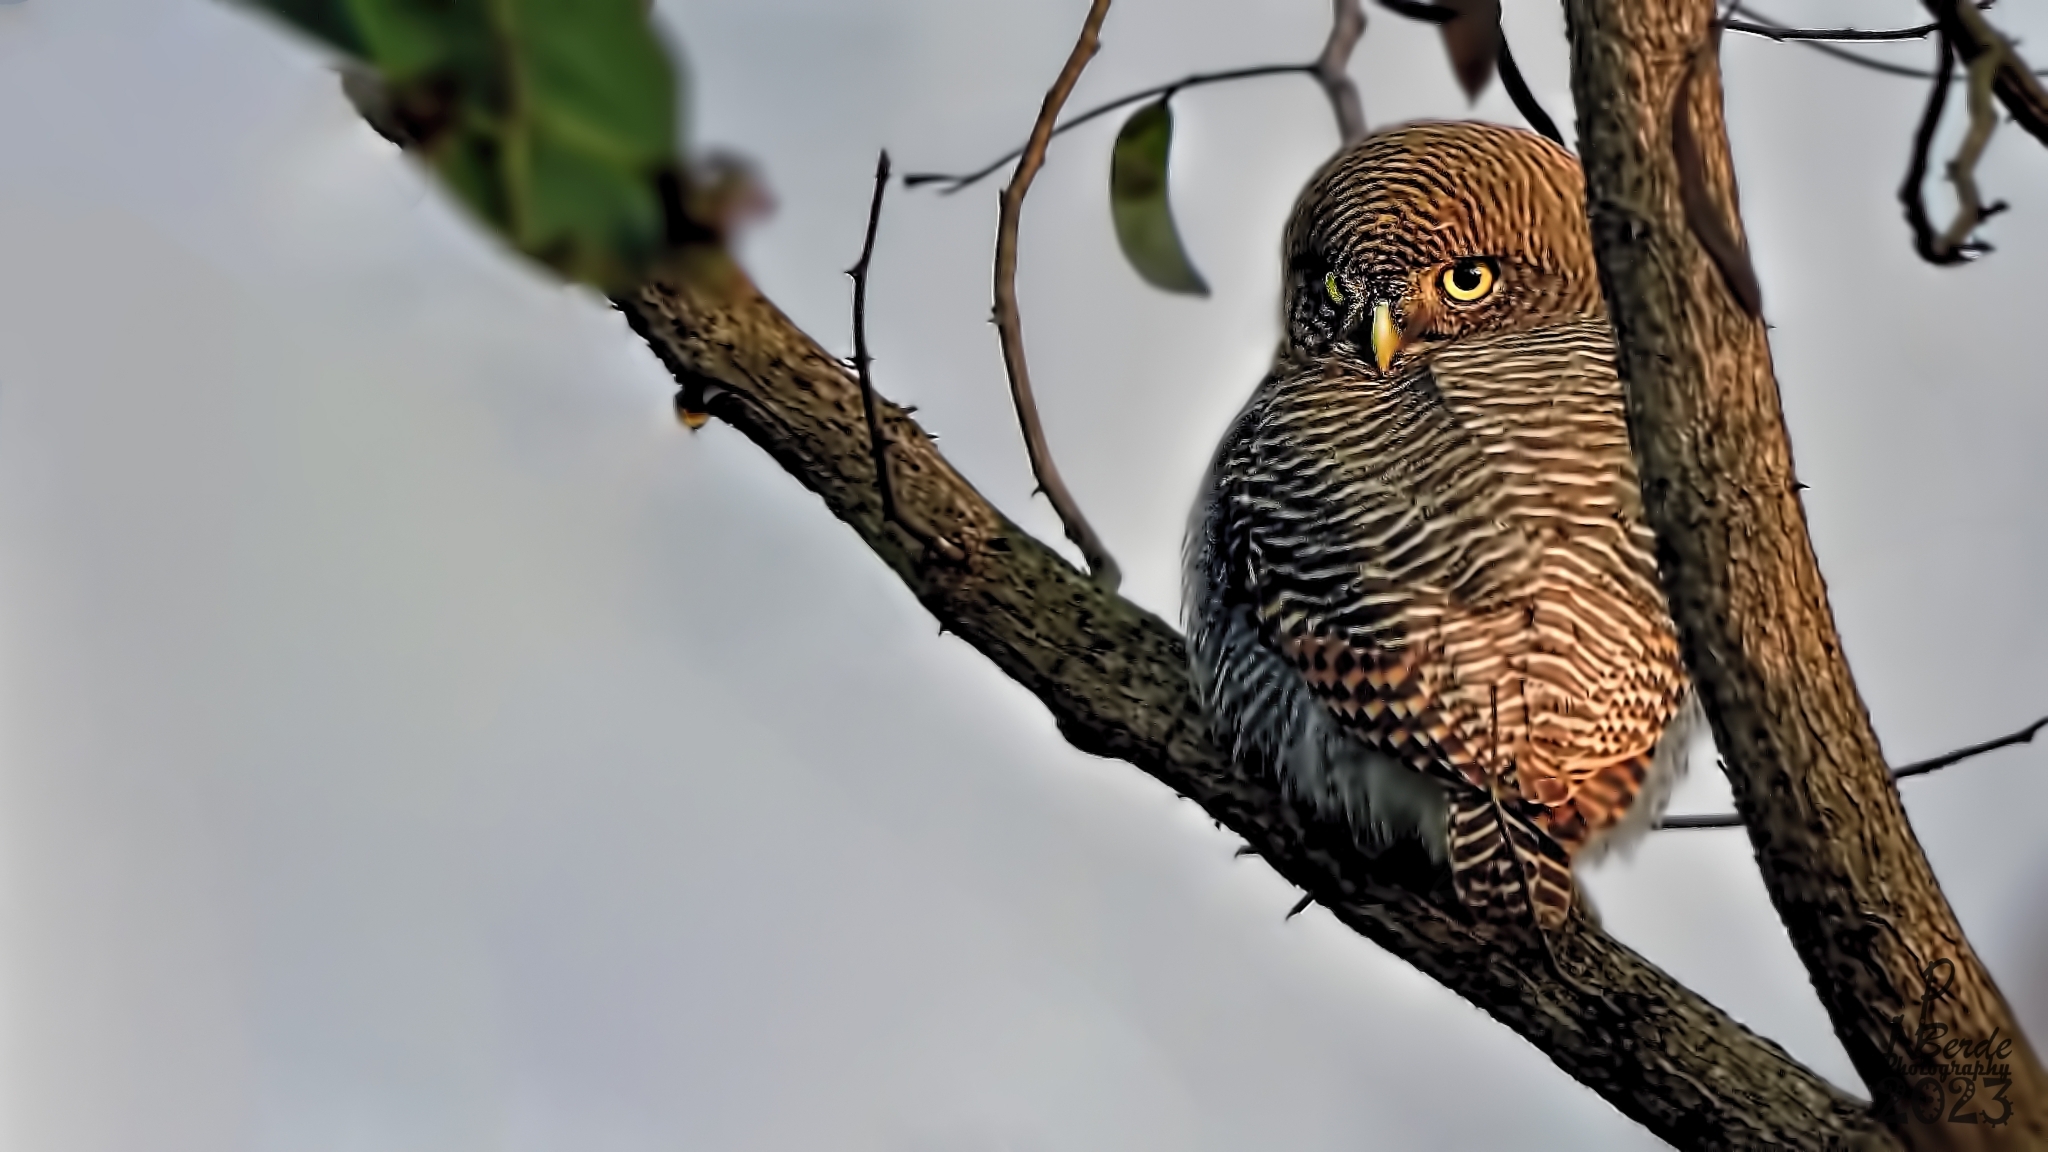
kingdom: Animalia
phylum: Chordata
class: Aves
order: Strigiformes
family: Strigidae
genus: Glaucidium
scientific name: Glaucidium radiatum
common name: Jungle owlet
